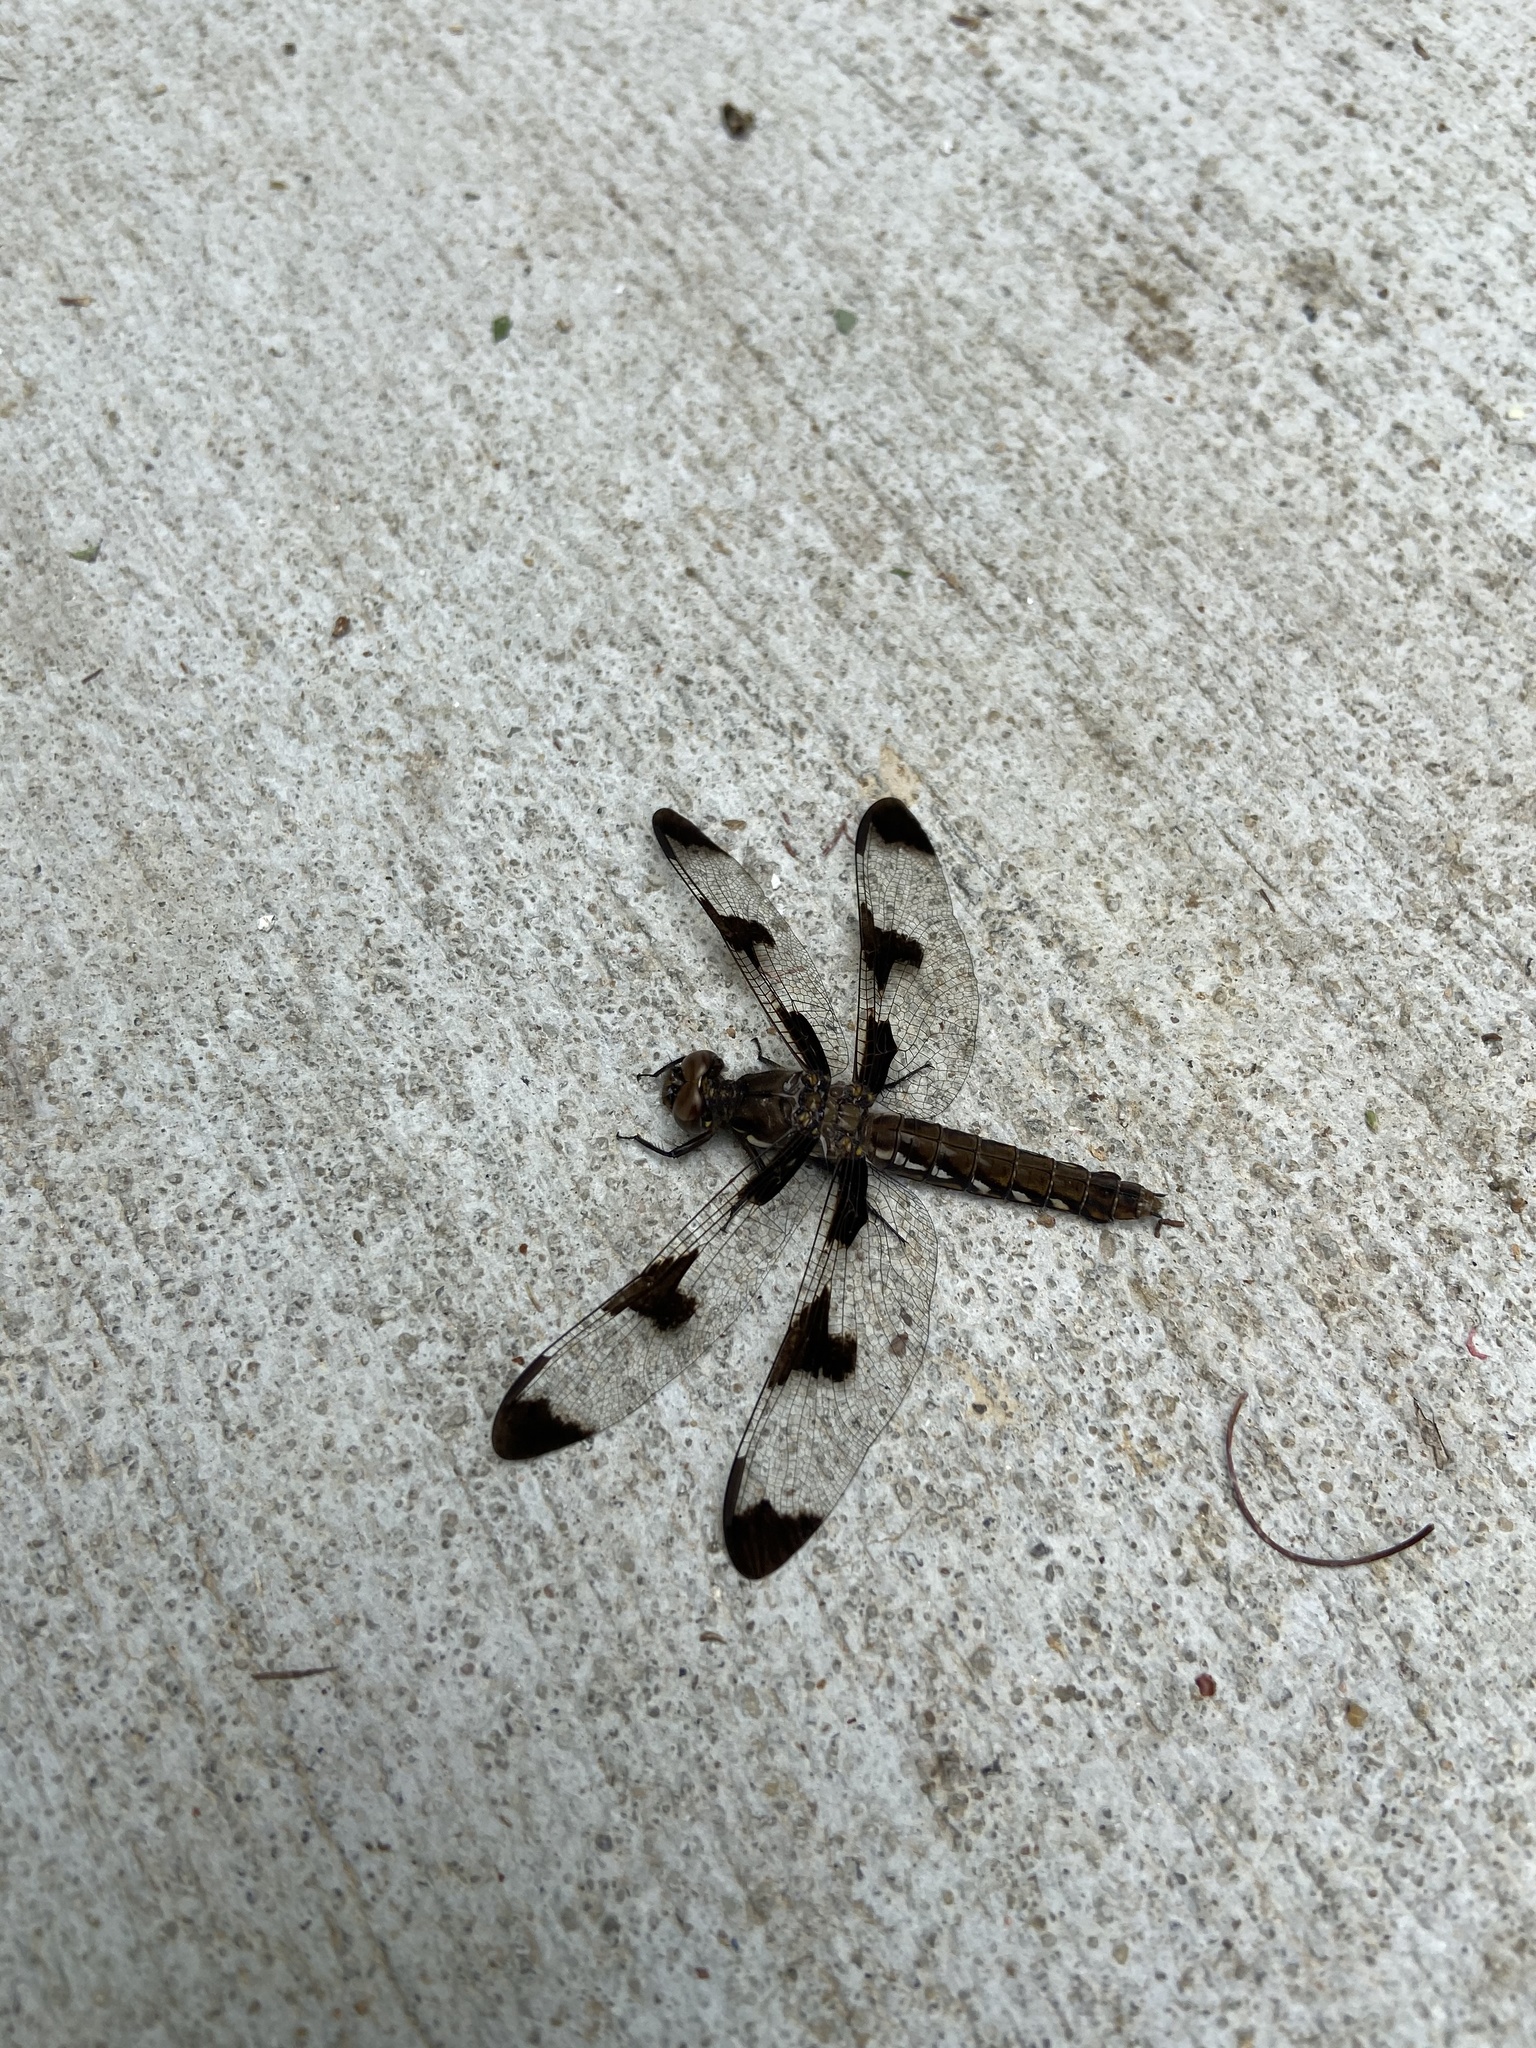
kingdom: Animalia
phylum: Arthropoda
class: Insecta
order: Odonata
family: Libellulidae
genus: Plathemis
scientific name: Plathemis lydia
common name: Common whitetail
